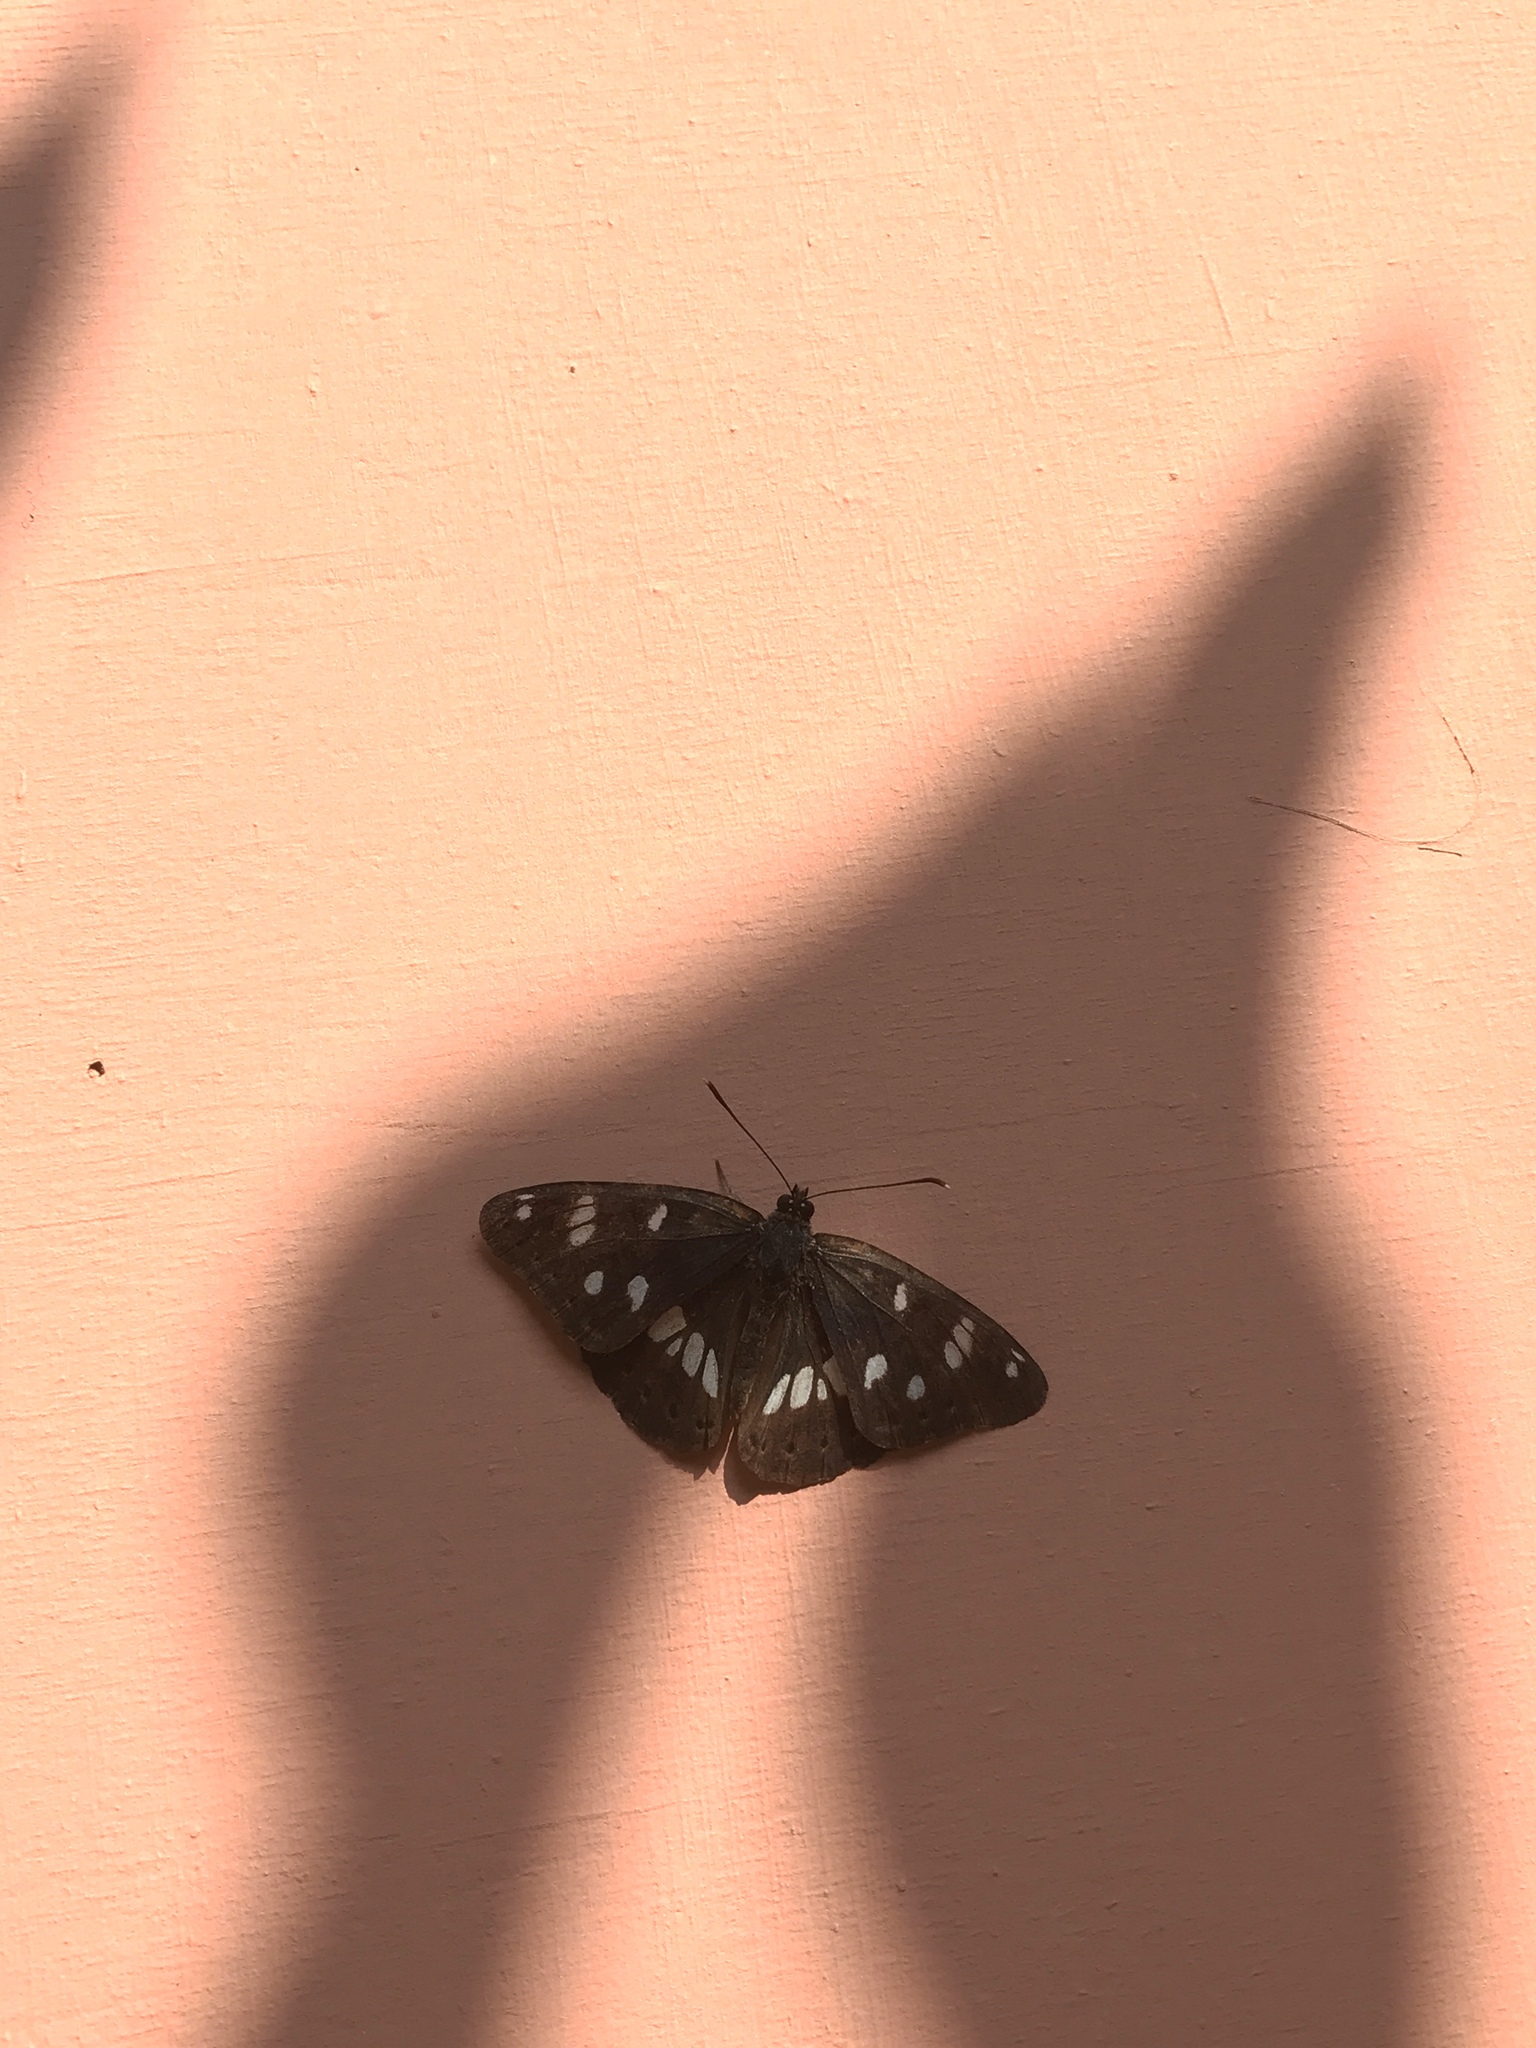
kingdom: Animalia
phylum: Arthropoda
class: Insecta
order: Lepidoptera
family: Nymphalidae
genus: Limenitis
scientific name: Limenitis reducta
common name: Southern white admiral
